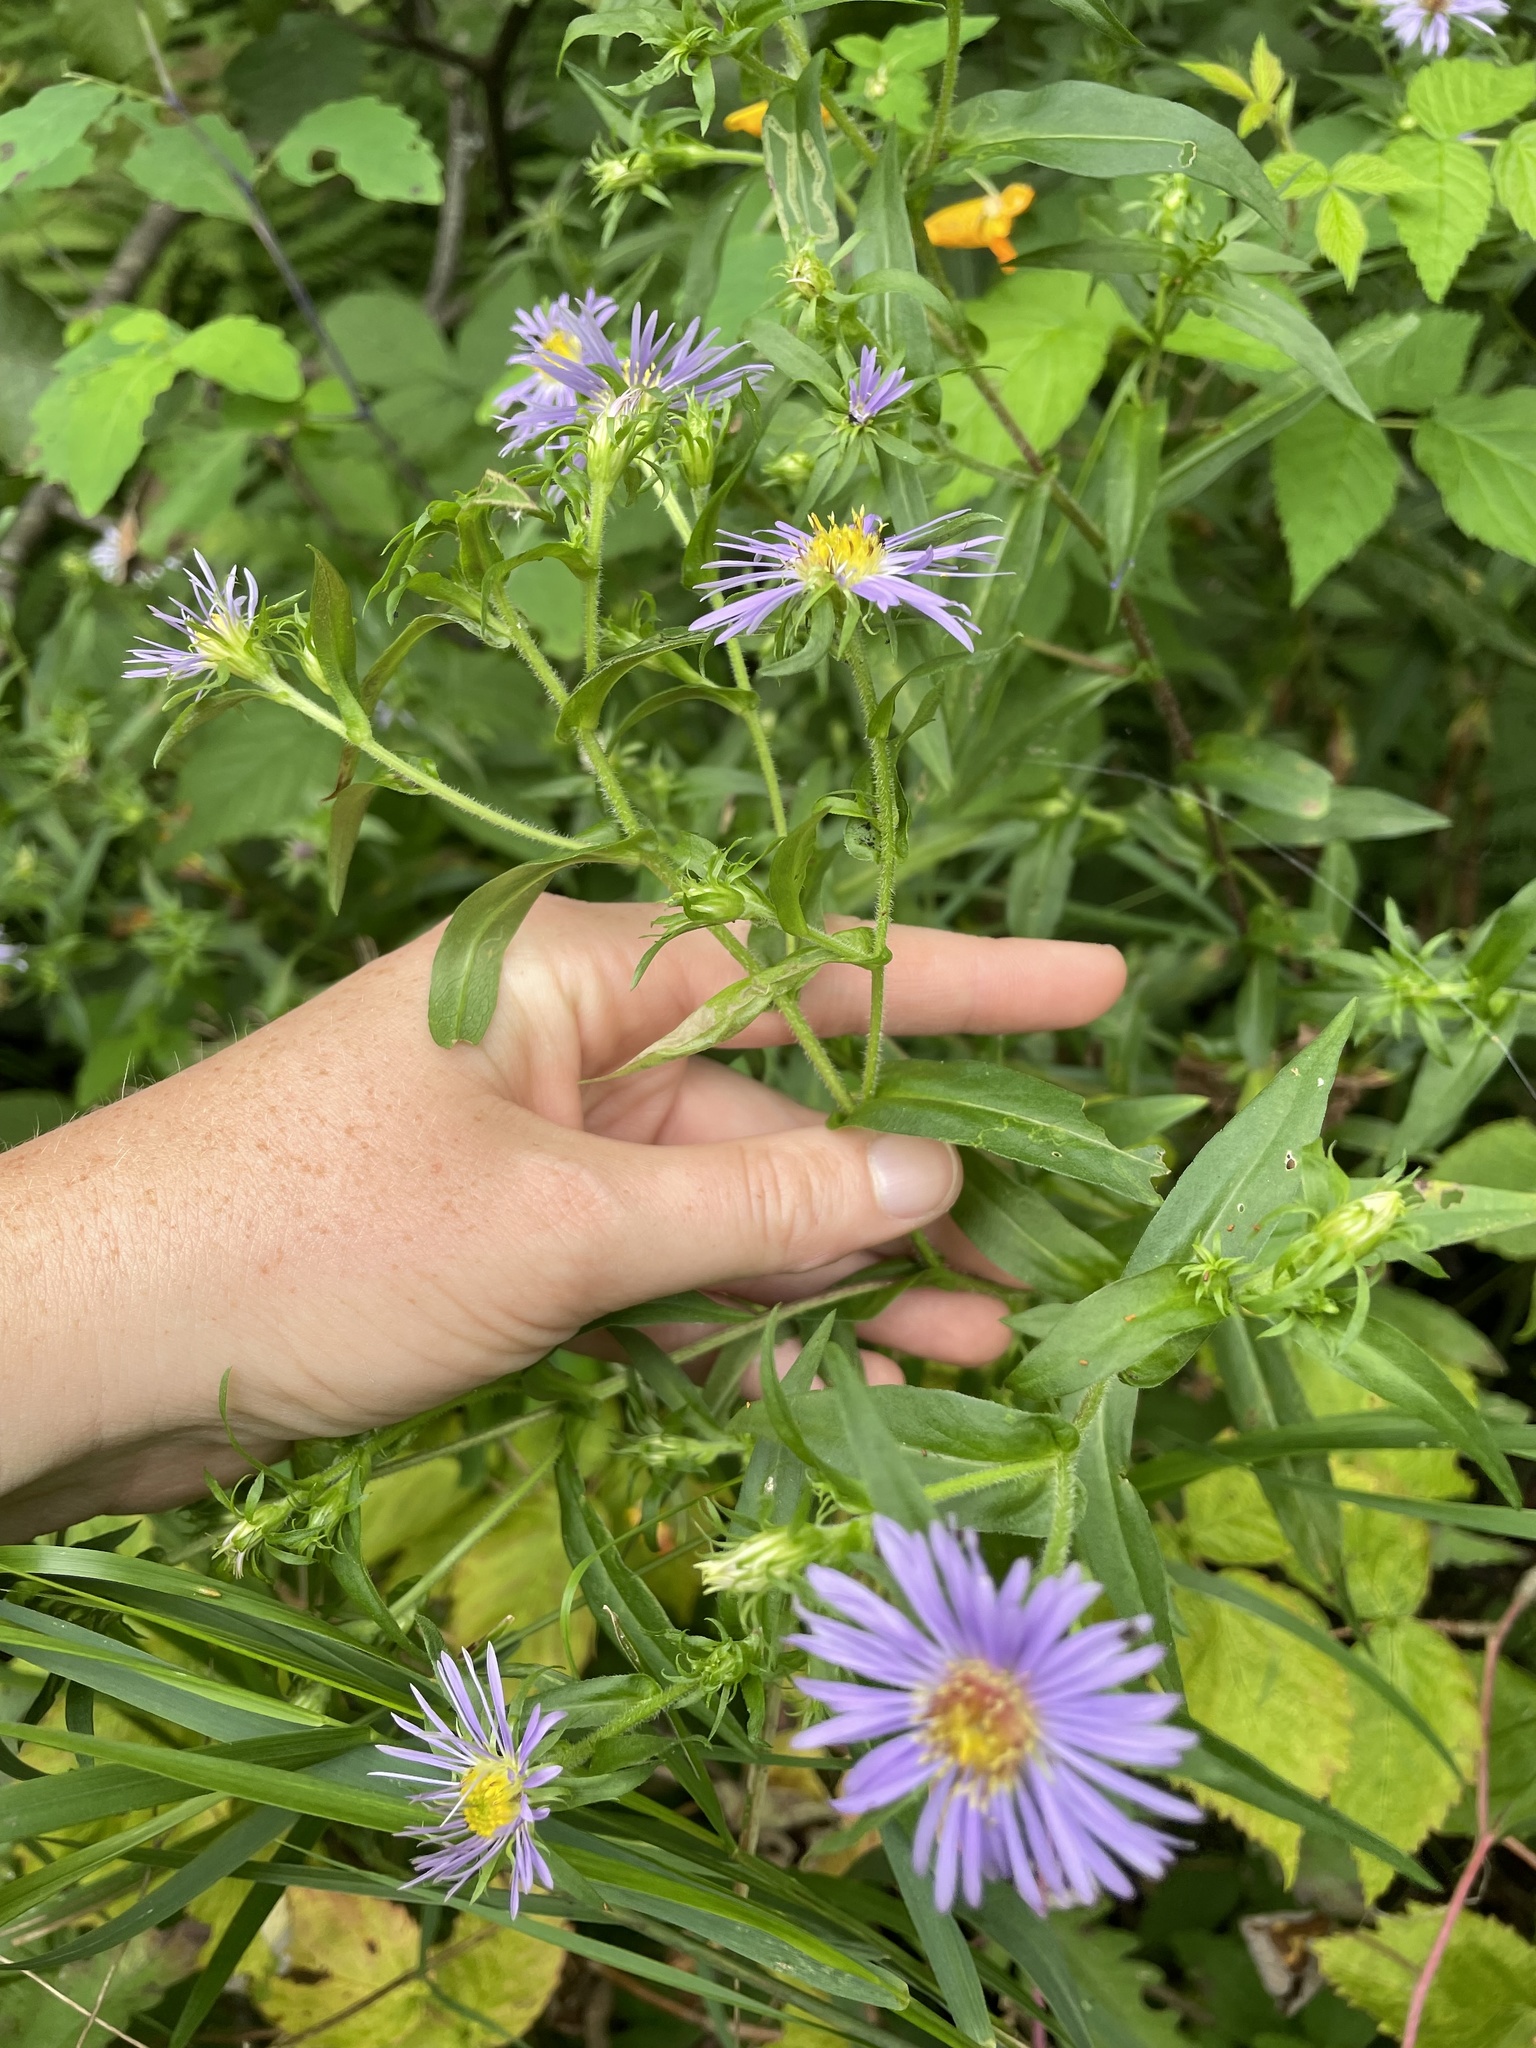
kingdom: Plantae
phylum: Tracheophyta
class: Magnoliopsida
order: Asterales
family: Asteraceae
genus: Symphyotrichum
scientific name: Symphyotrichum puniceum
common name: Bog aster
